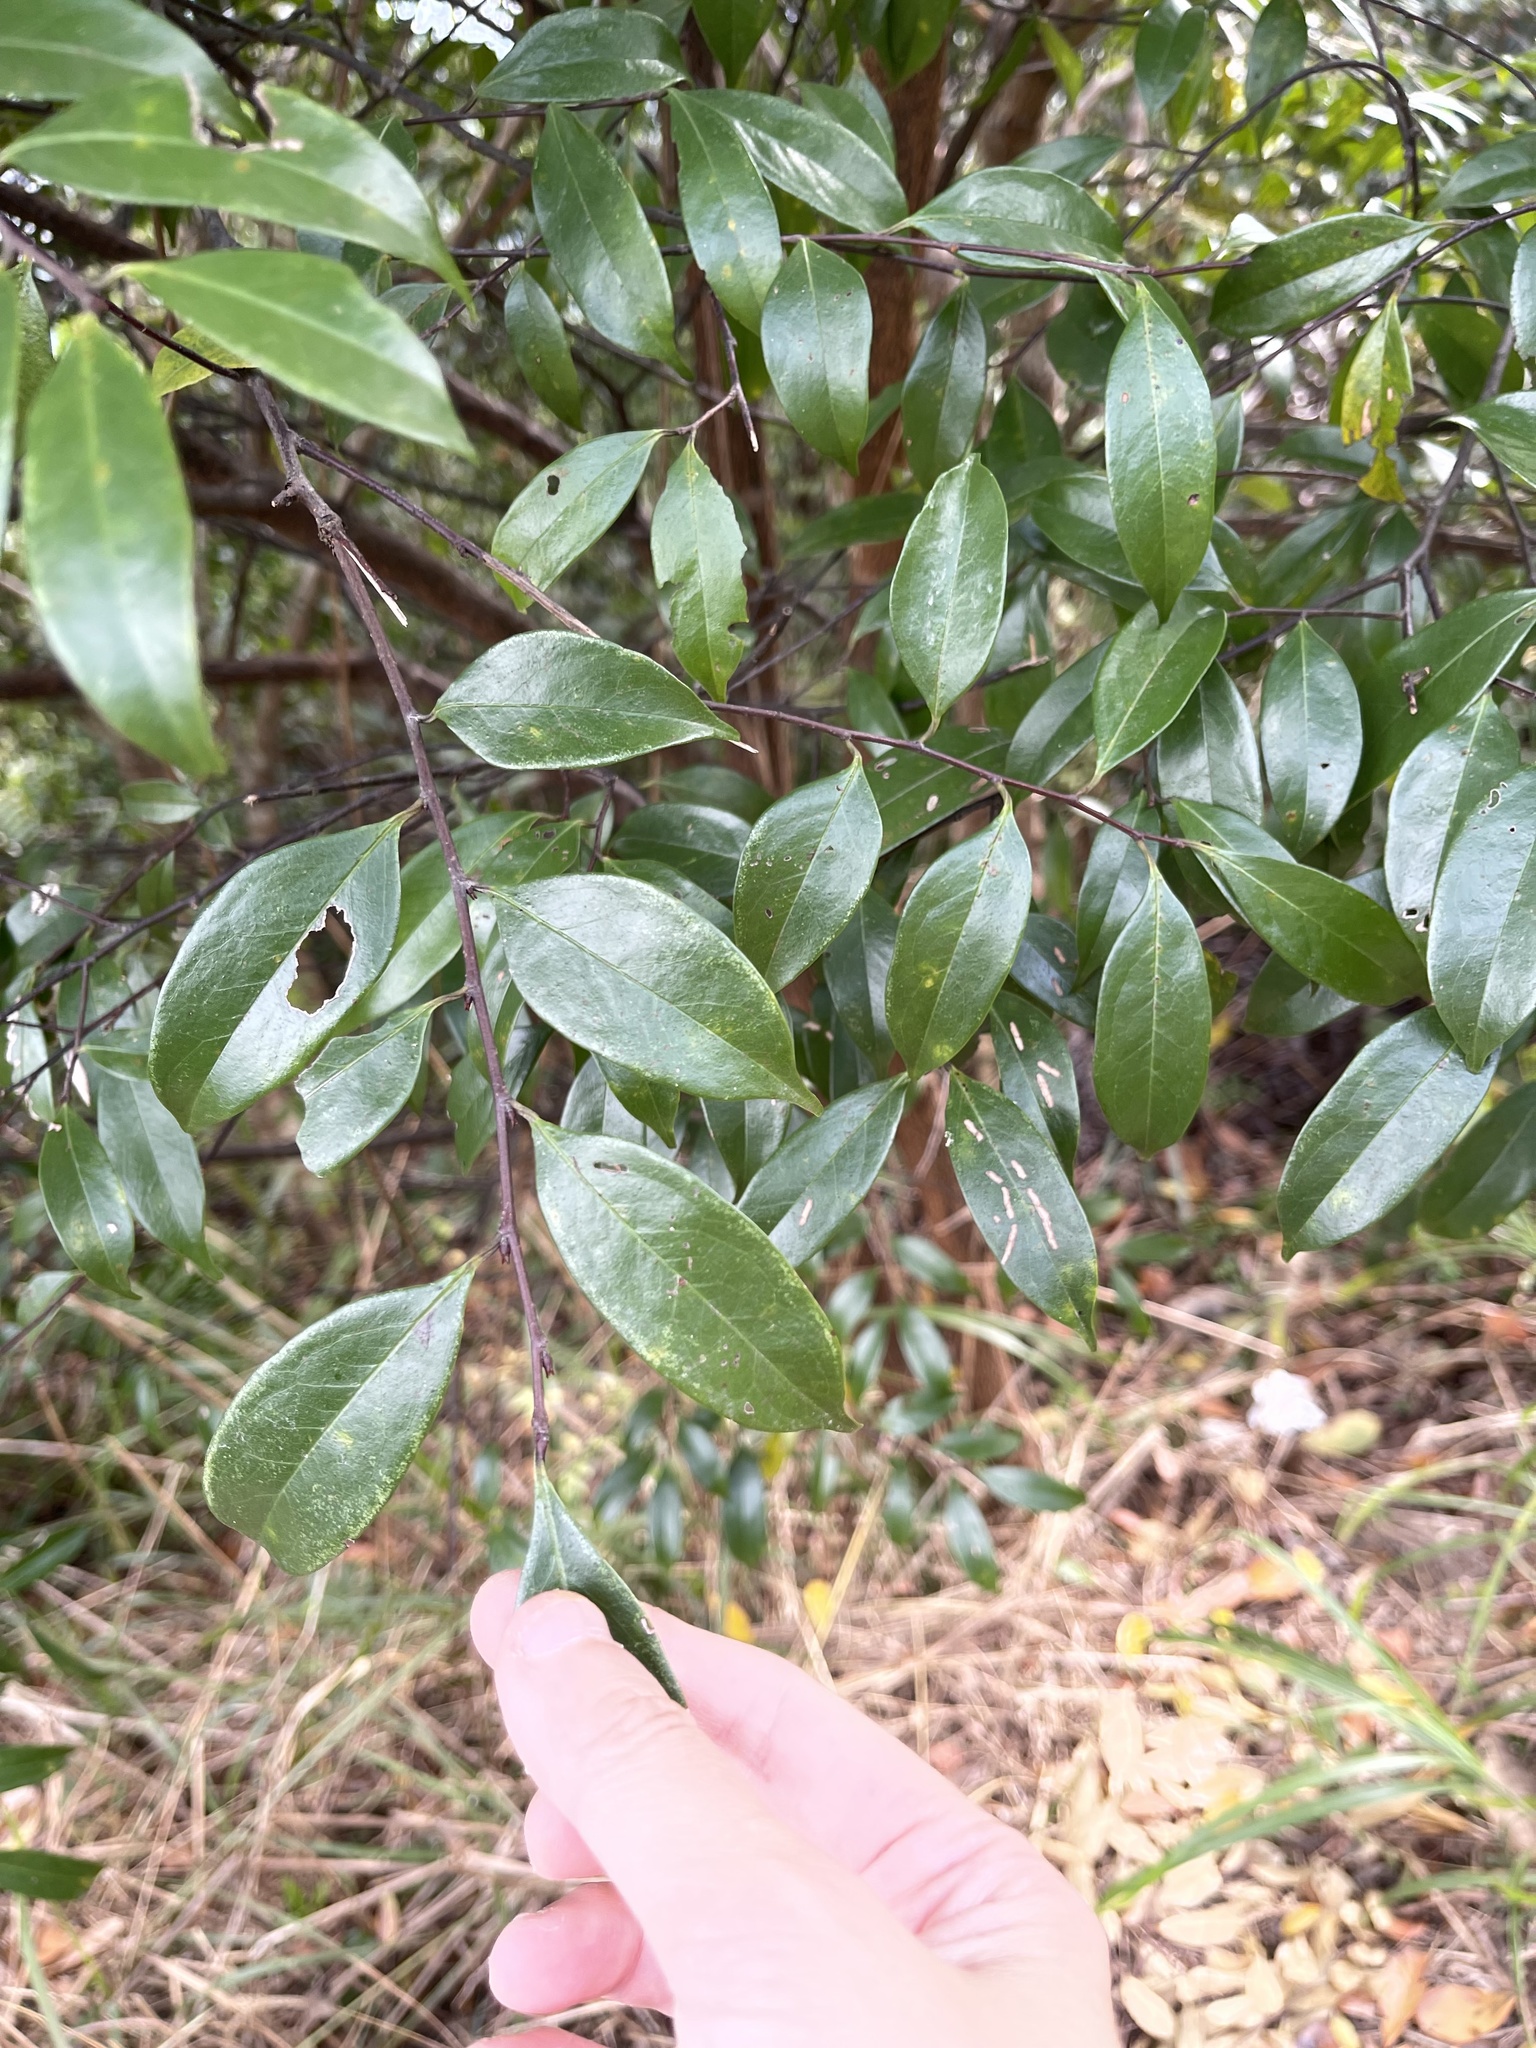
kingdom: Plantae
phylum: Tracheophyta
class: Magnoliopsida
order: Rosales
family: Rosaceae
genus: Prunus
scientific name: Prunus phaeosticta
